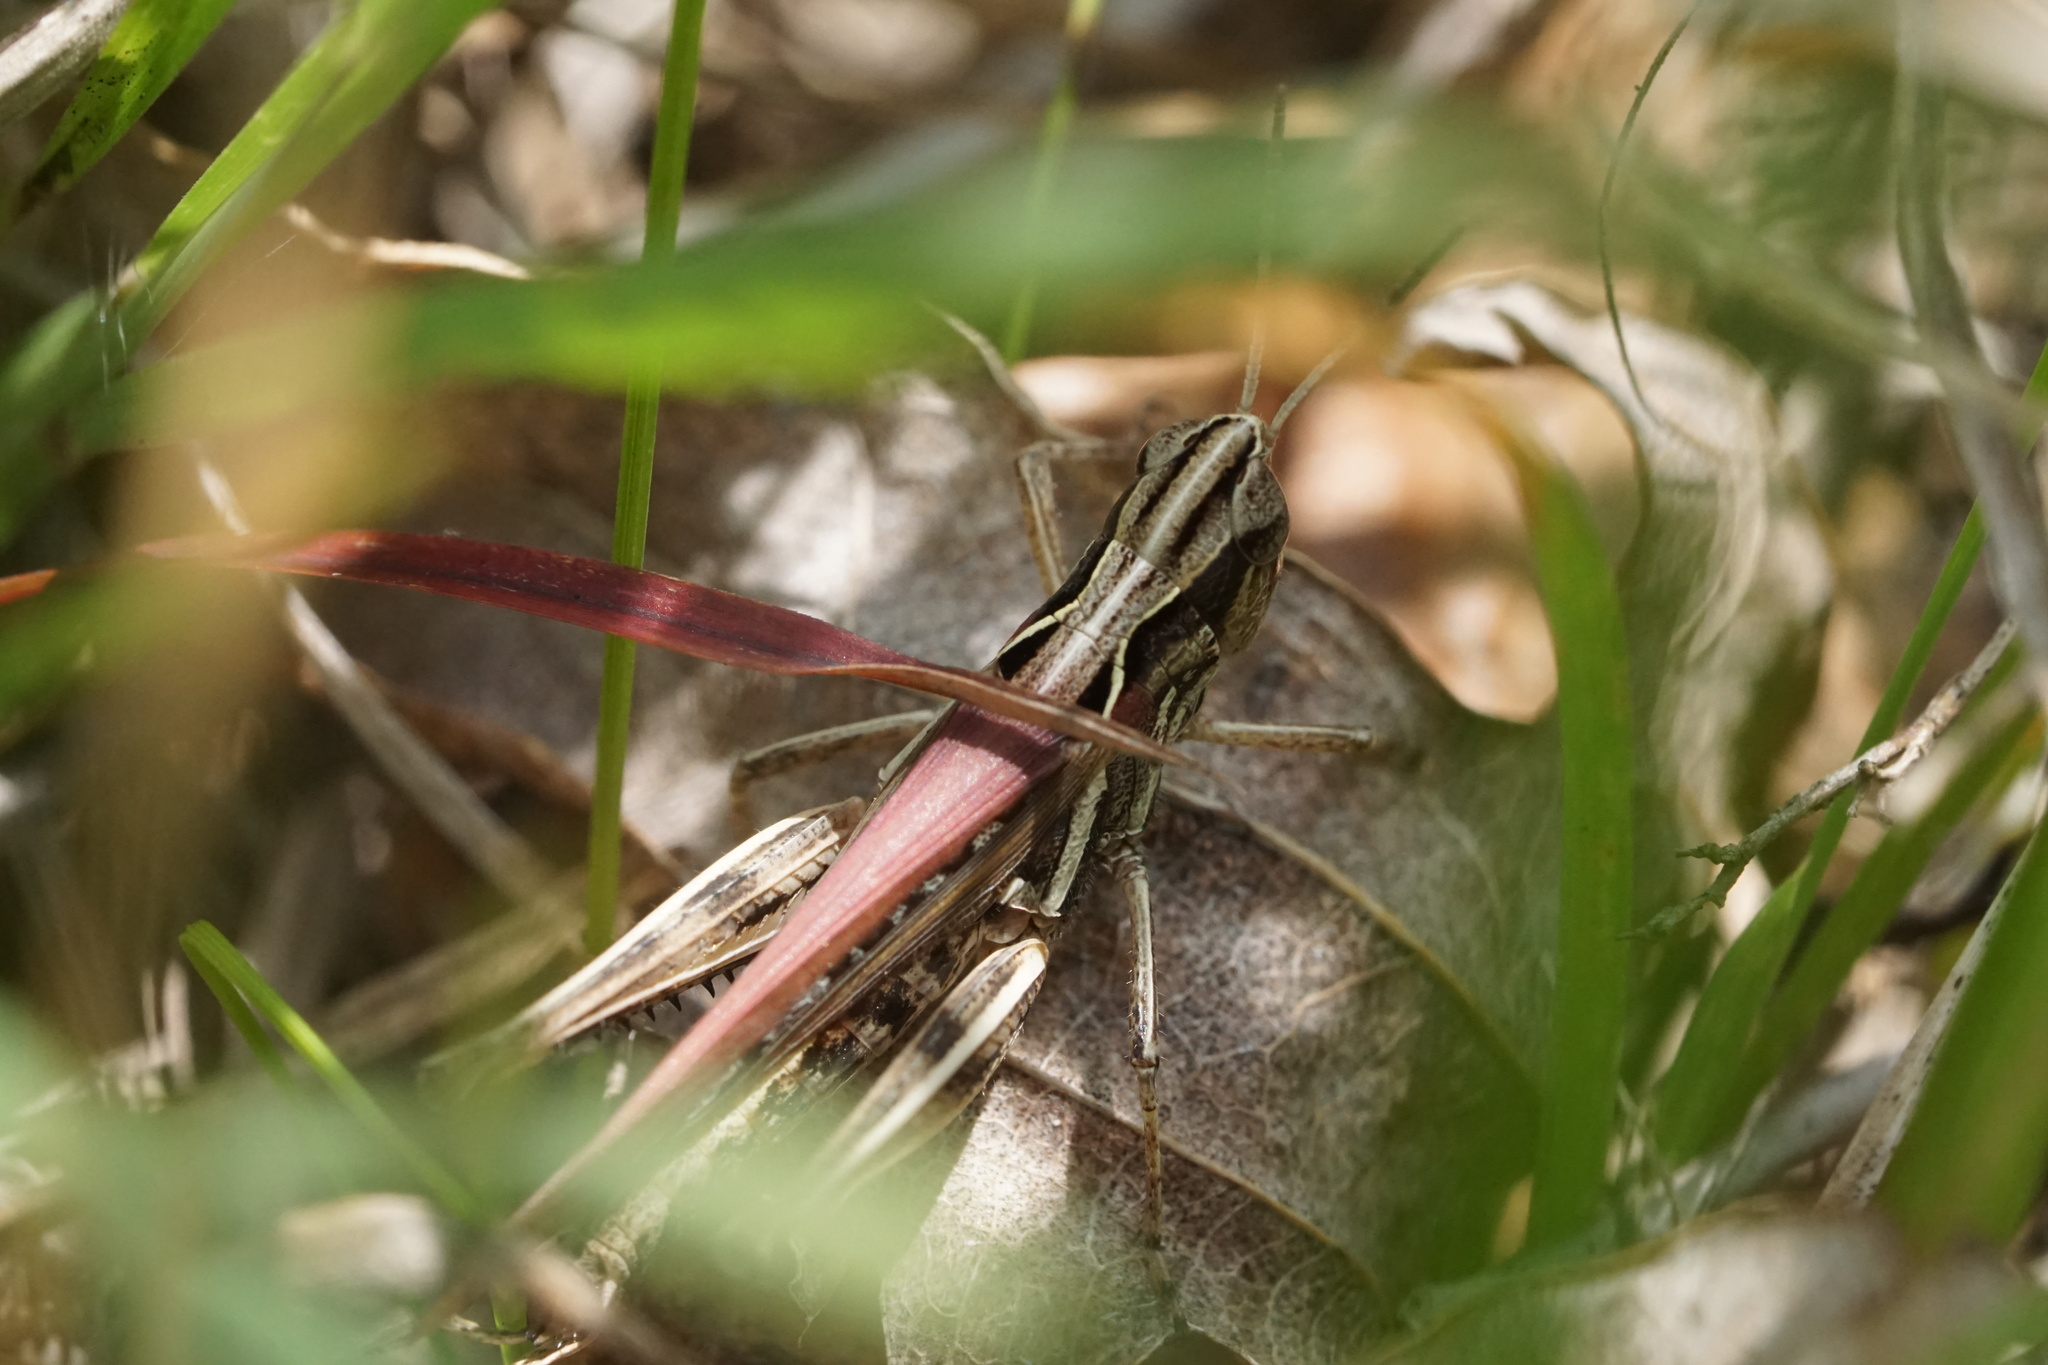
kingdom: Animalia
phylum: Arthropoda
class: Insecta
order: Orthoptera
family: Acrididae
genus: Orphulella
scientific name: Orphulella pelidna
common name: Spotted-wing grasshopper
